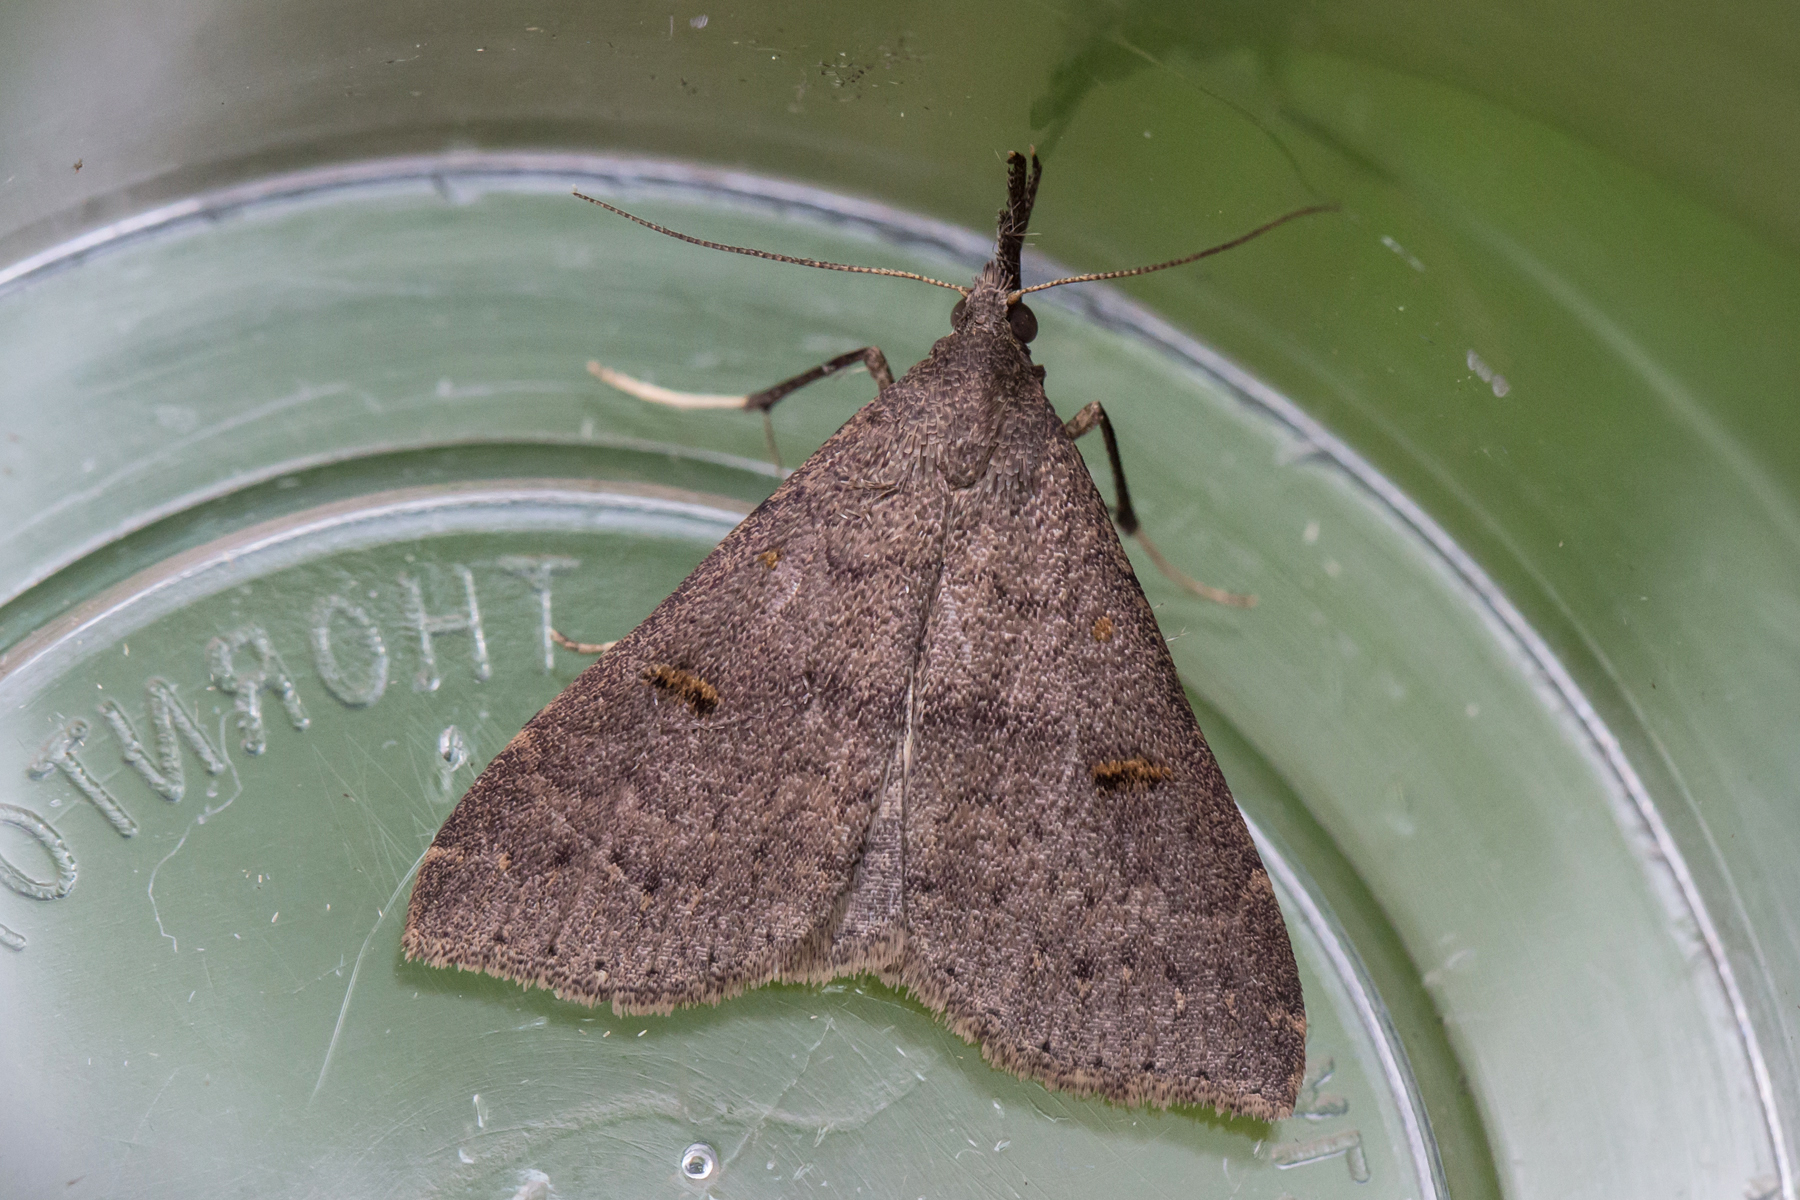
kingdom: Animalia
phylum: Arthropoda
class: Insecta
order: Lepidoptera
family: Erebidae
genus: Renia
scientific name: Renia adspergillus
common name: Speckled renia moth
